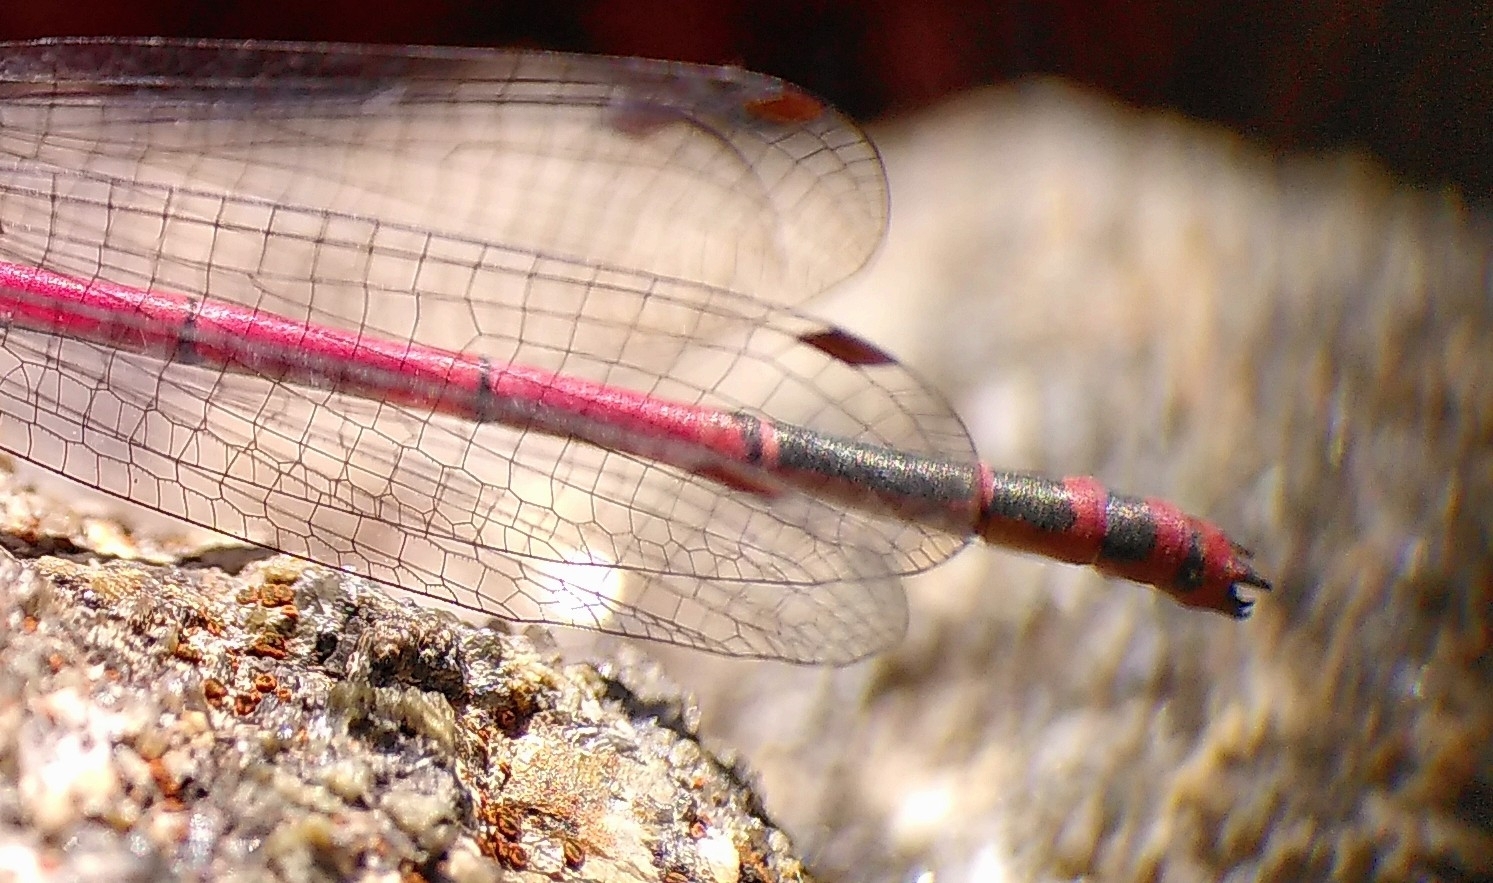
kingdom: Animalia
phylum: Arthropoda
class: Insecta
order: Odonata
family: Coenagrionidae
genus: Pyrrhosoma
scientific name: Pyrrhosoma nymphula
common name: Large red damsel
